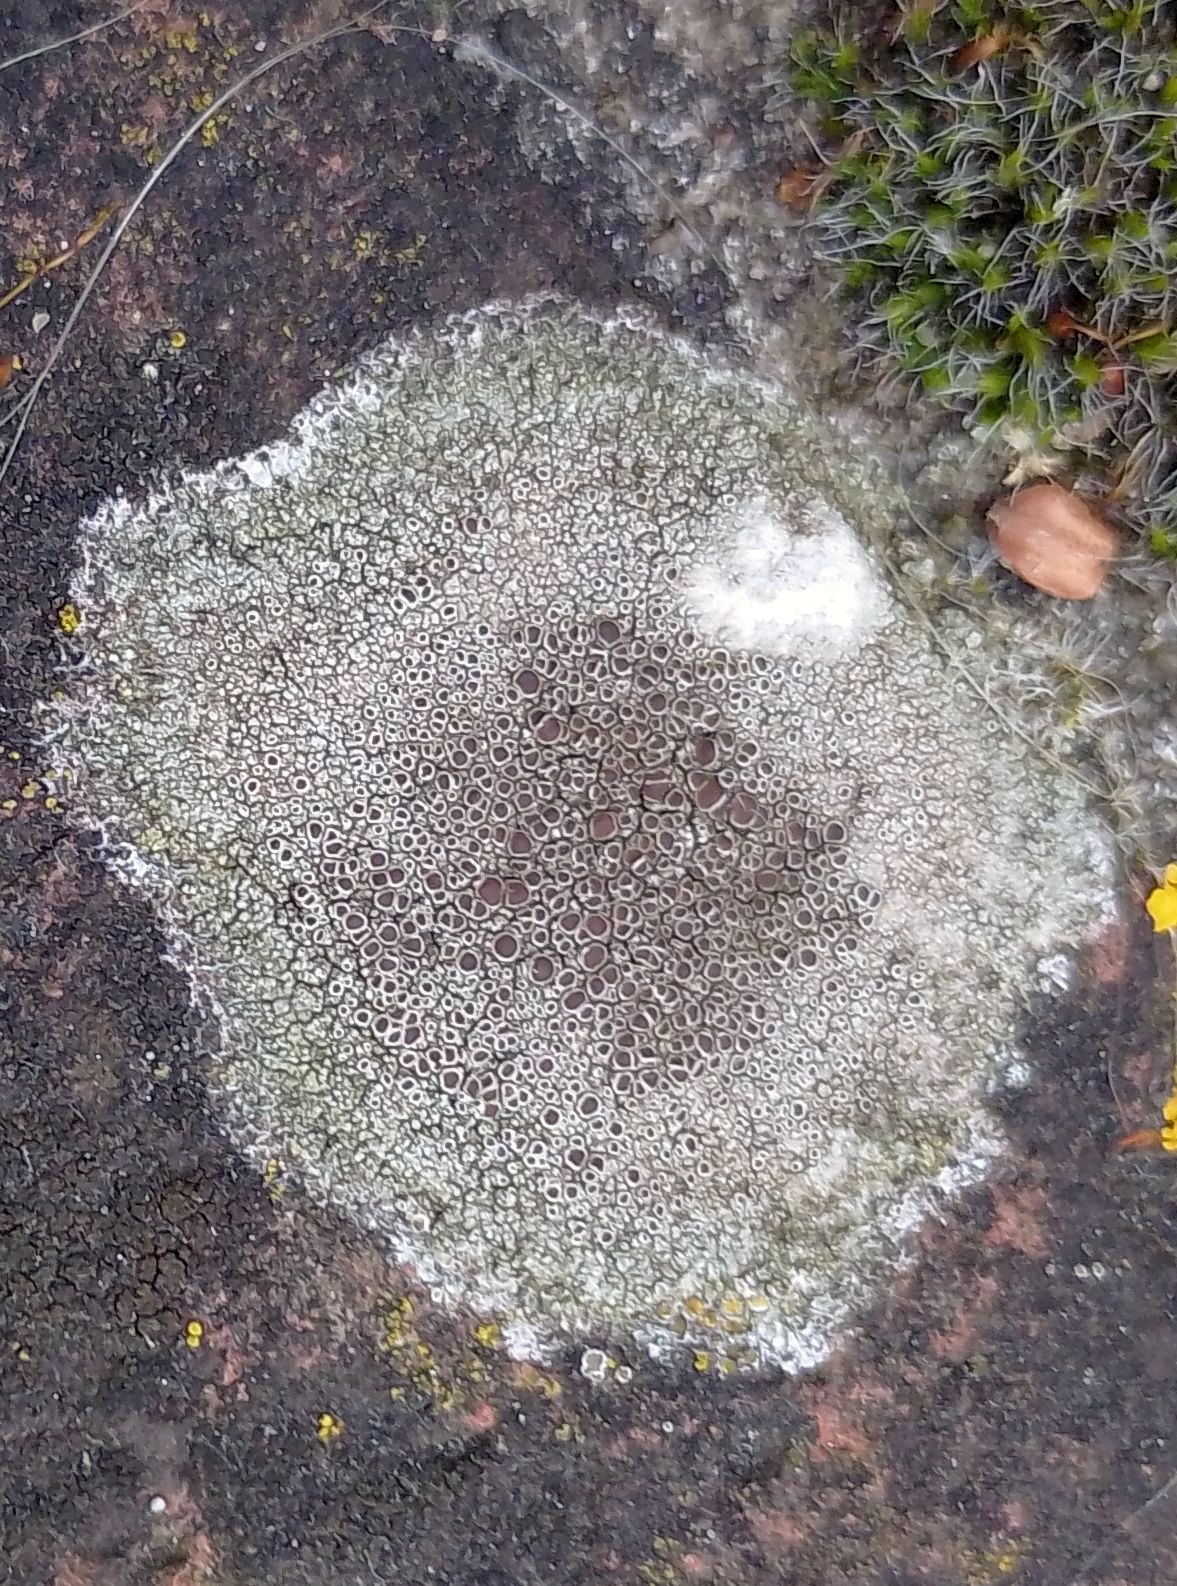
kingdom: Fungi
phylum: Ascomycota
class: Lecanoromycetes
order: Lecanorales
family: Lecanoraceae
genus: Lecanora
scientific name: Lecanora campestris
